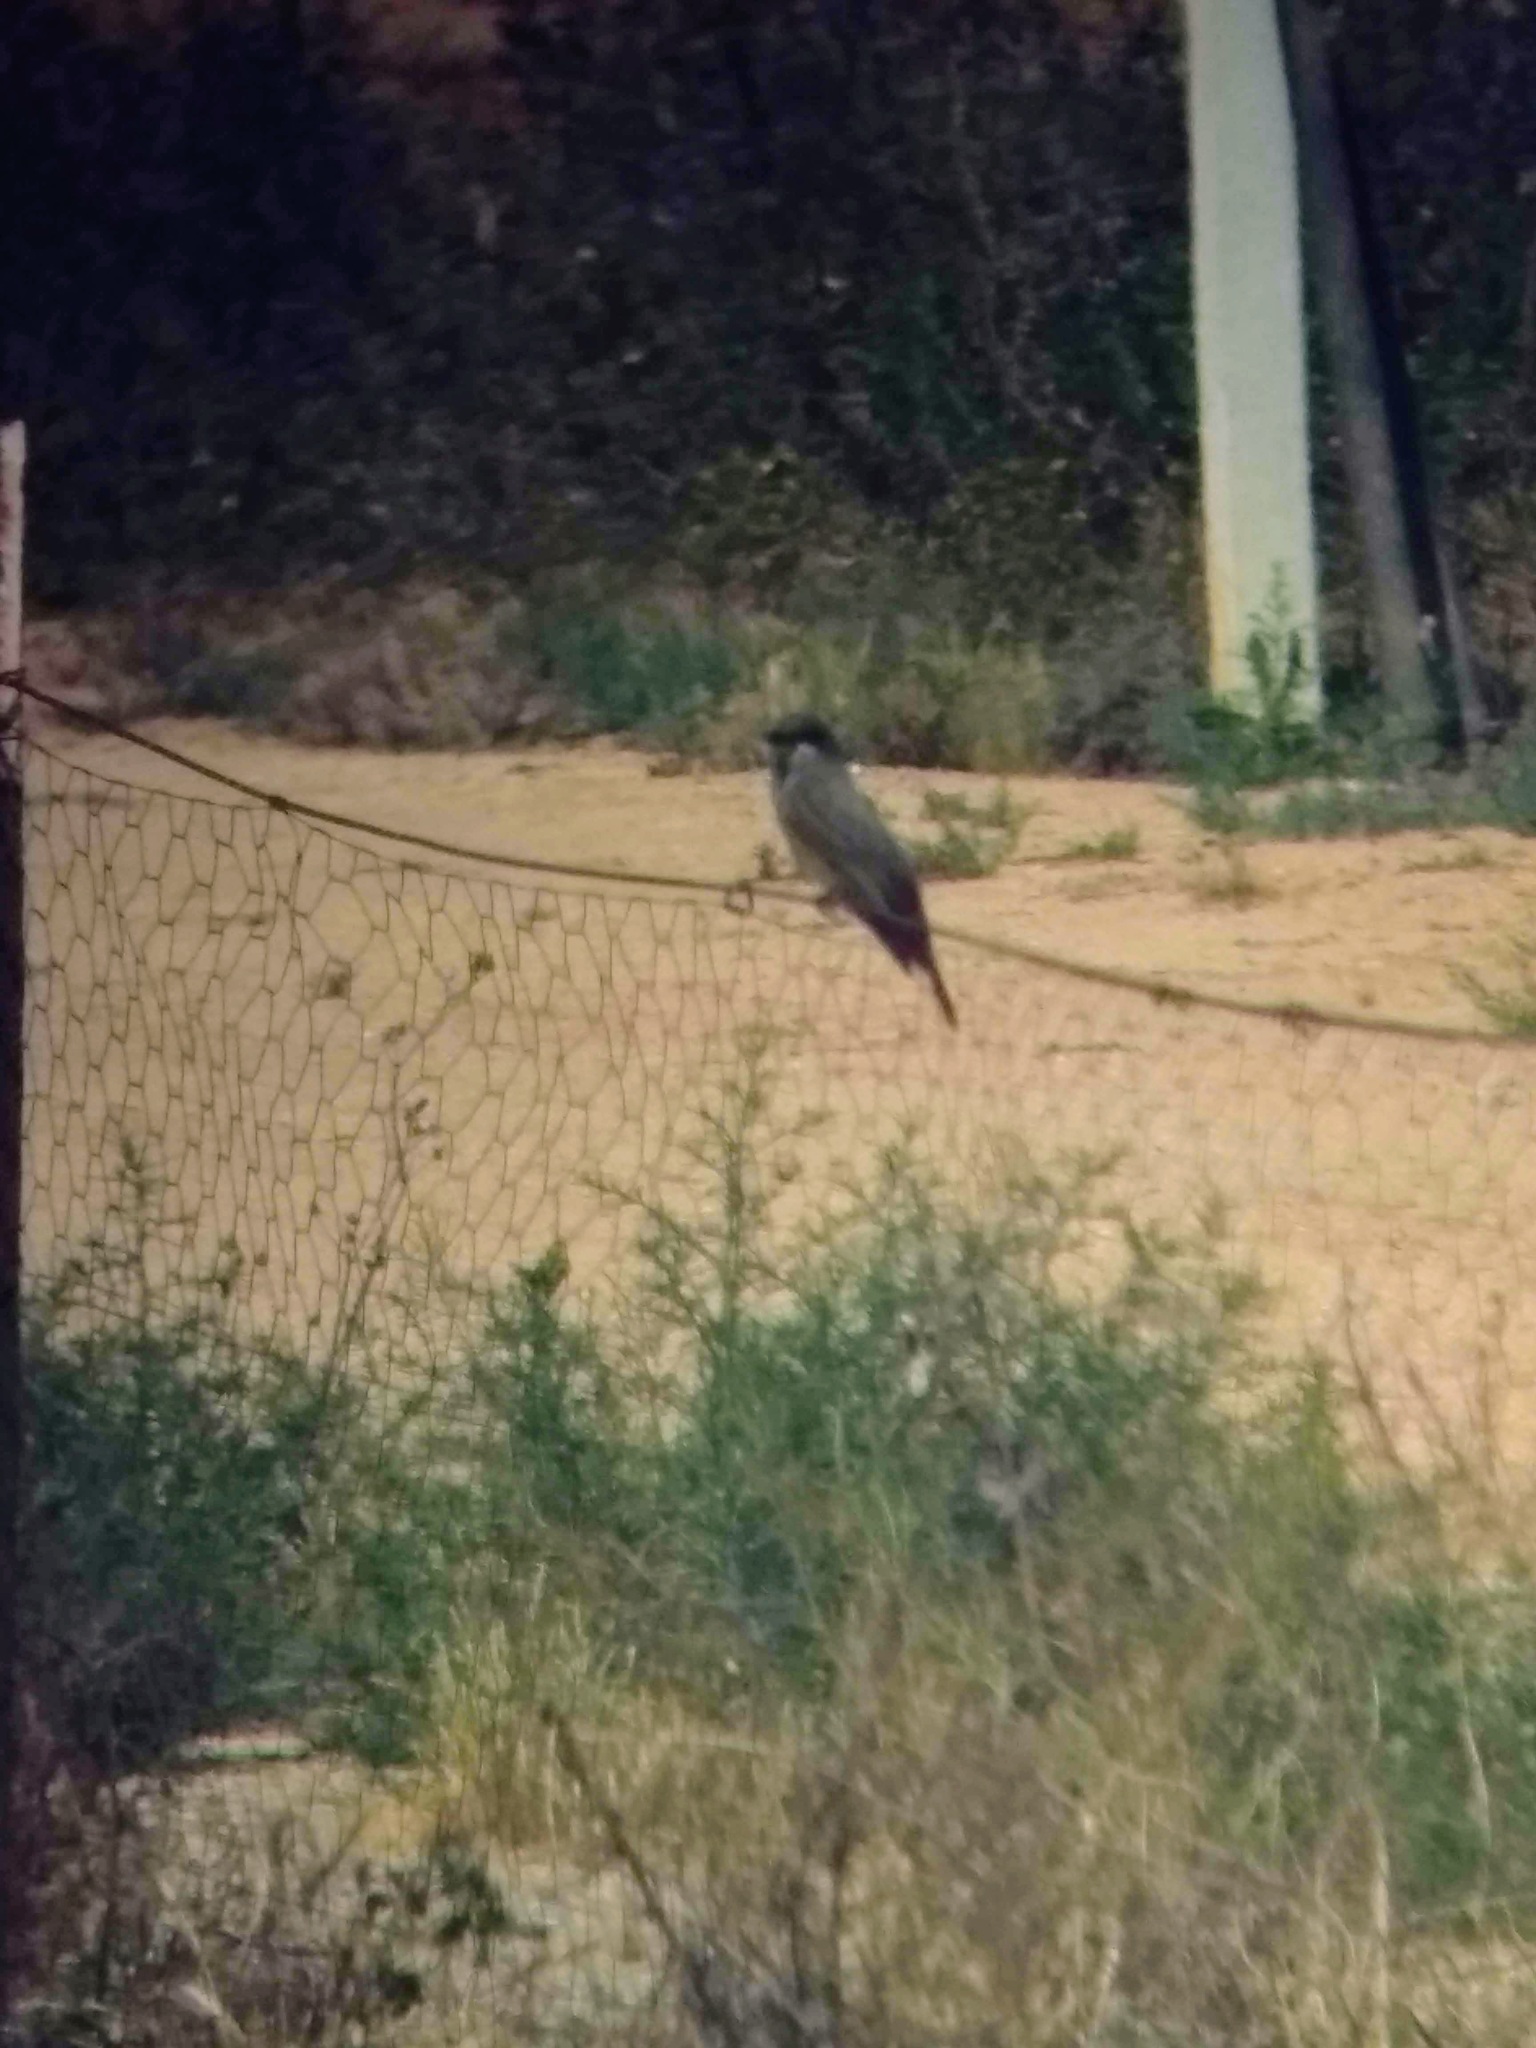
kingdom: Animalia
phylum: Chordata
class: Aves
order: Passeriformes
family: Tyrannidae
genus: Tyrannus
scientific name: Tyrannus vociferans
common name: Cassin's kingbird
